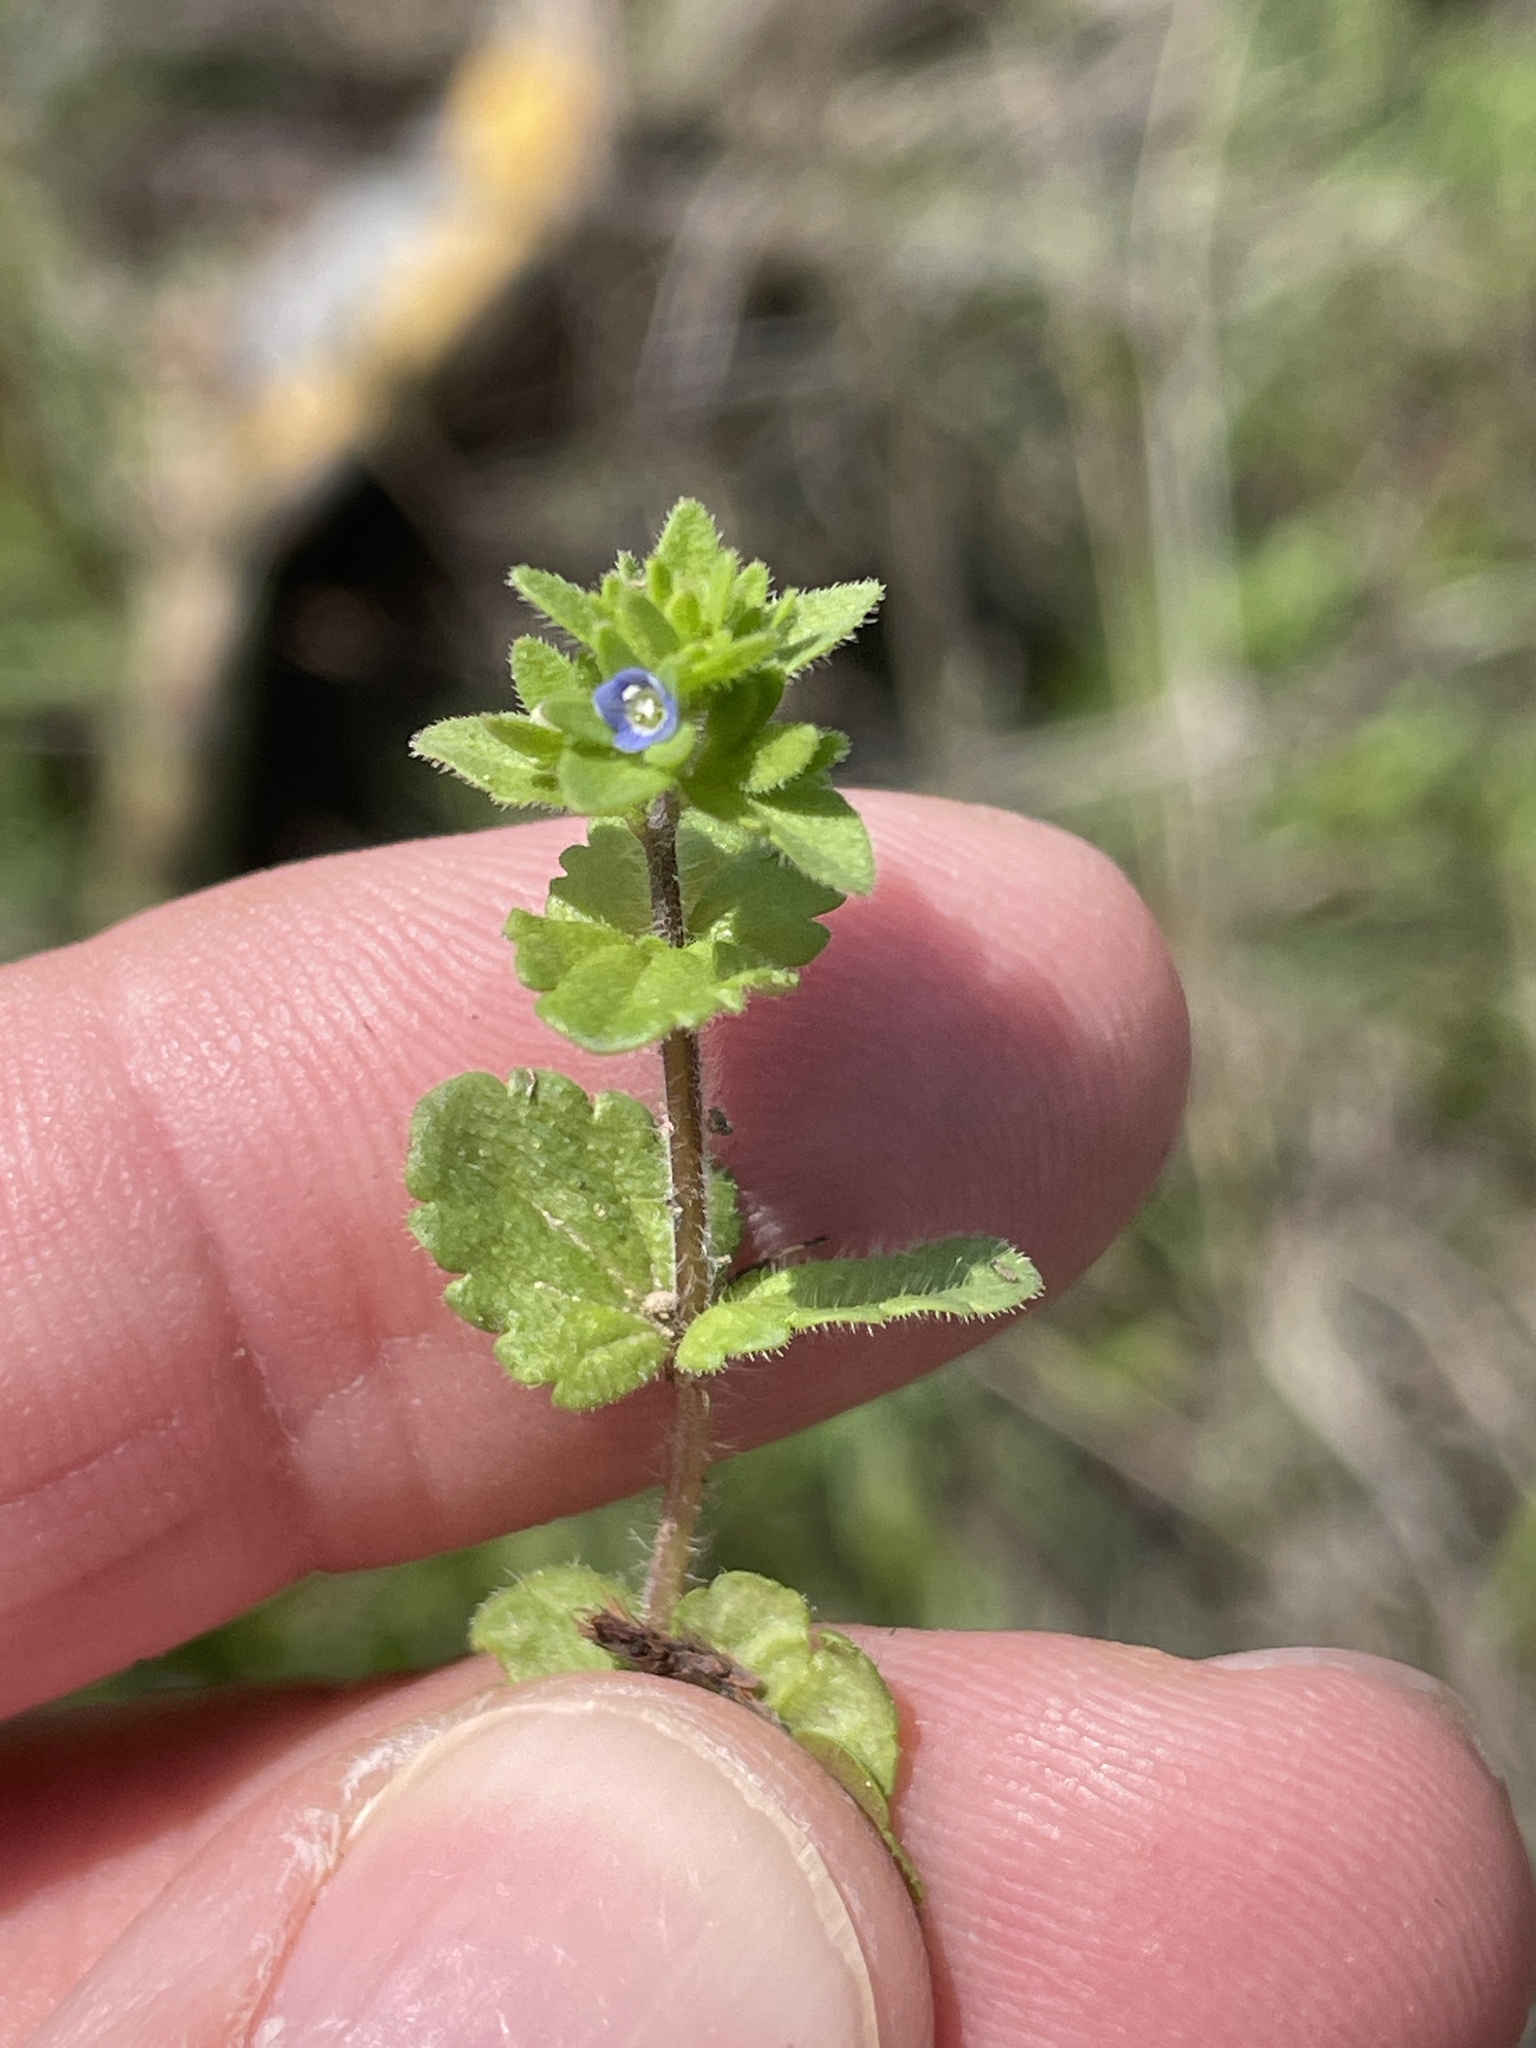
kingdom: Plantae
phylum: Tracheophyta
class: Magnoliopsida
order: Lamiales
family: Plantaginaceae
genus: Veronica
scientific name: Veronica arvensis
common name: Corn speedwell
